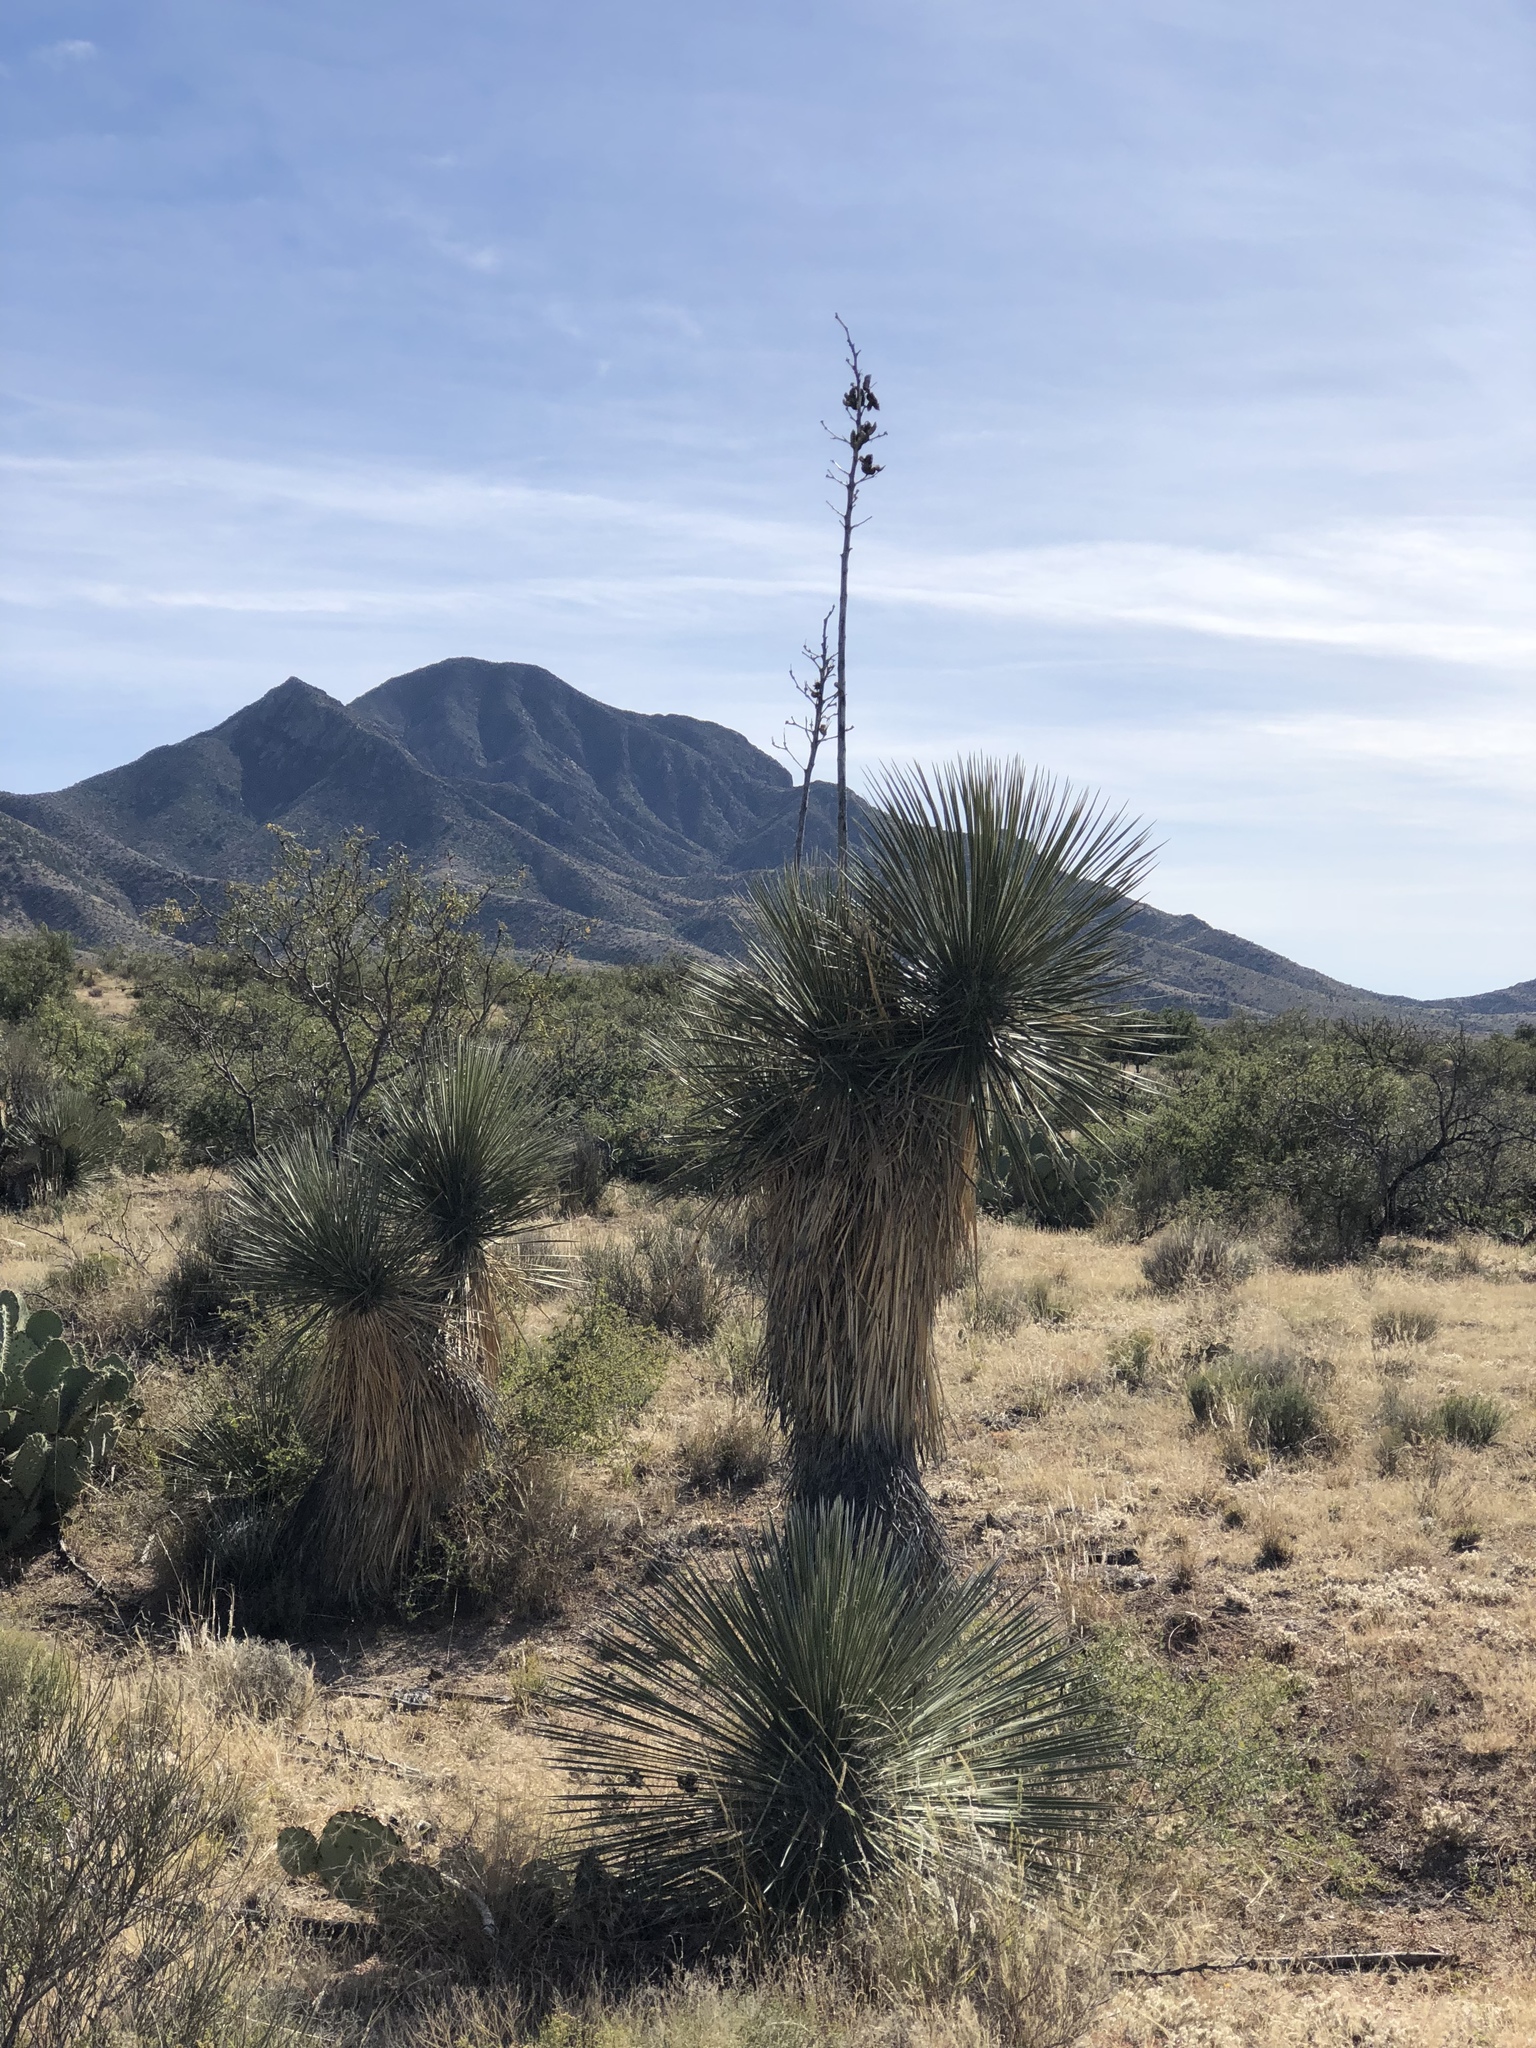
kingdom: Plantae
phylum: Tracheophyta
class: Liliopsida
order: Asparagales
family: Asparagaceae
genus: Yucca
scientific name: Yucca elata
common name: Palmella
